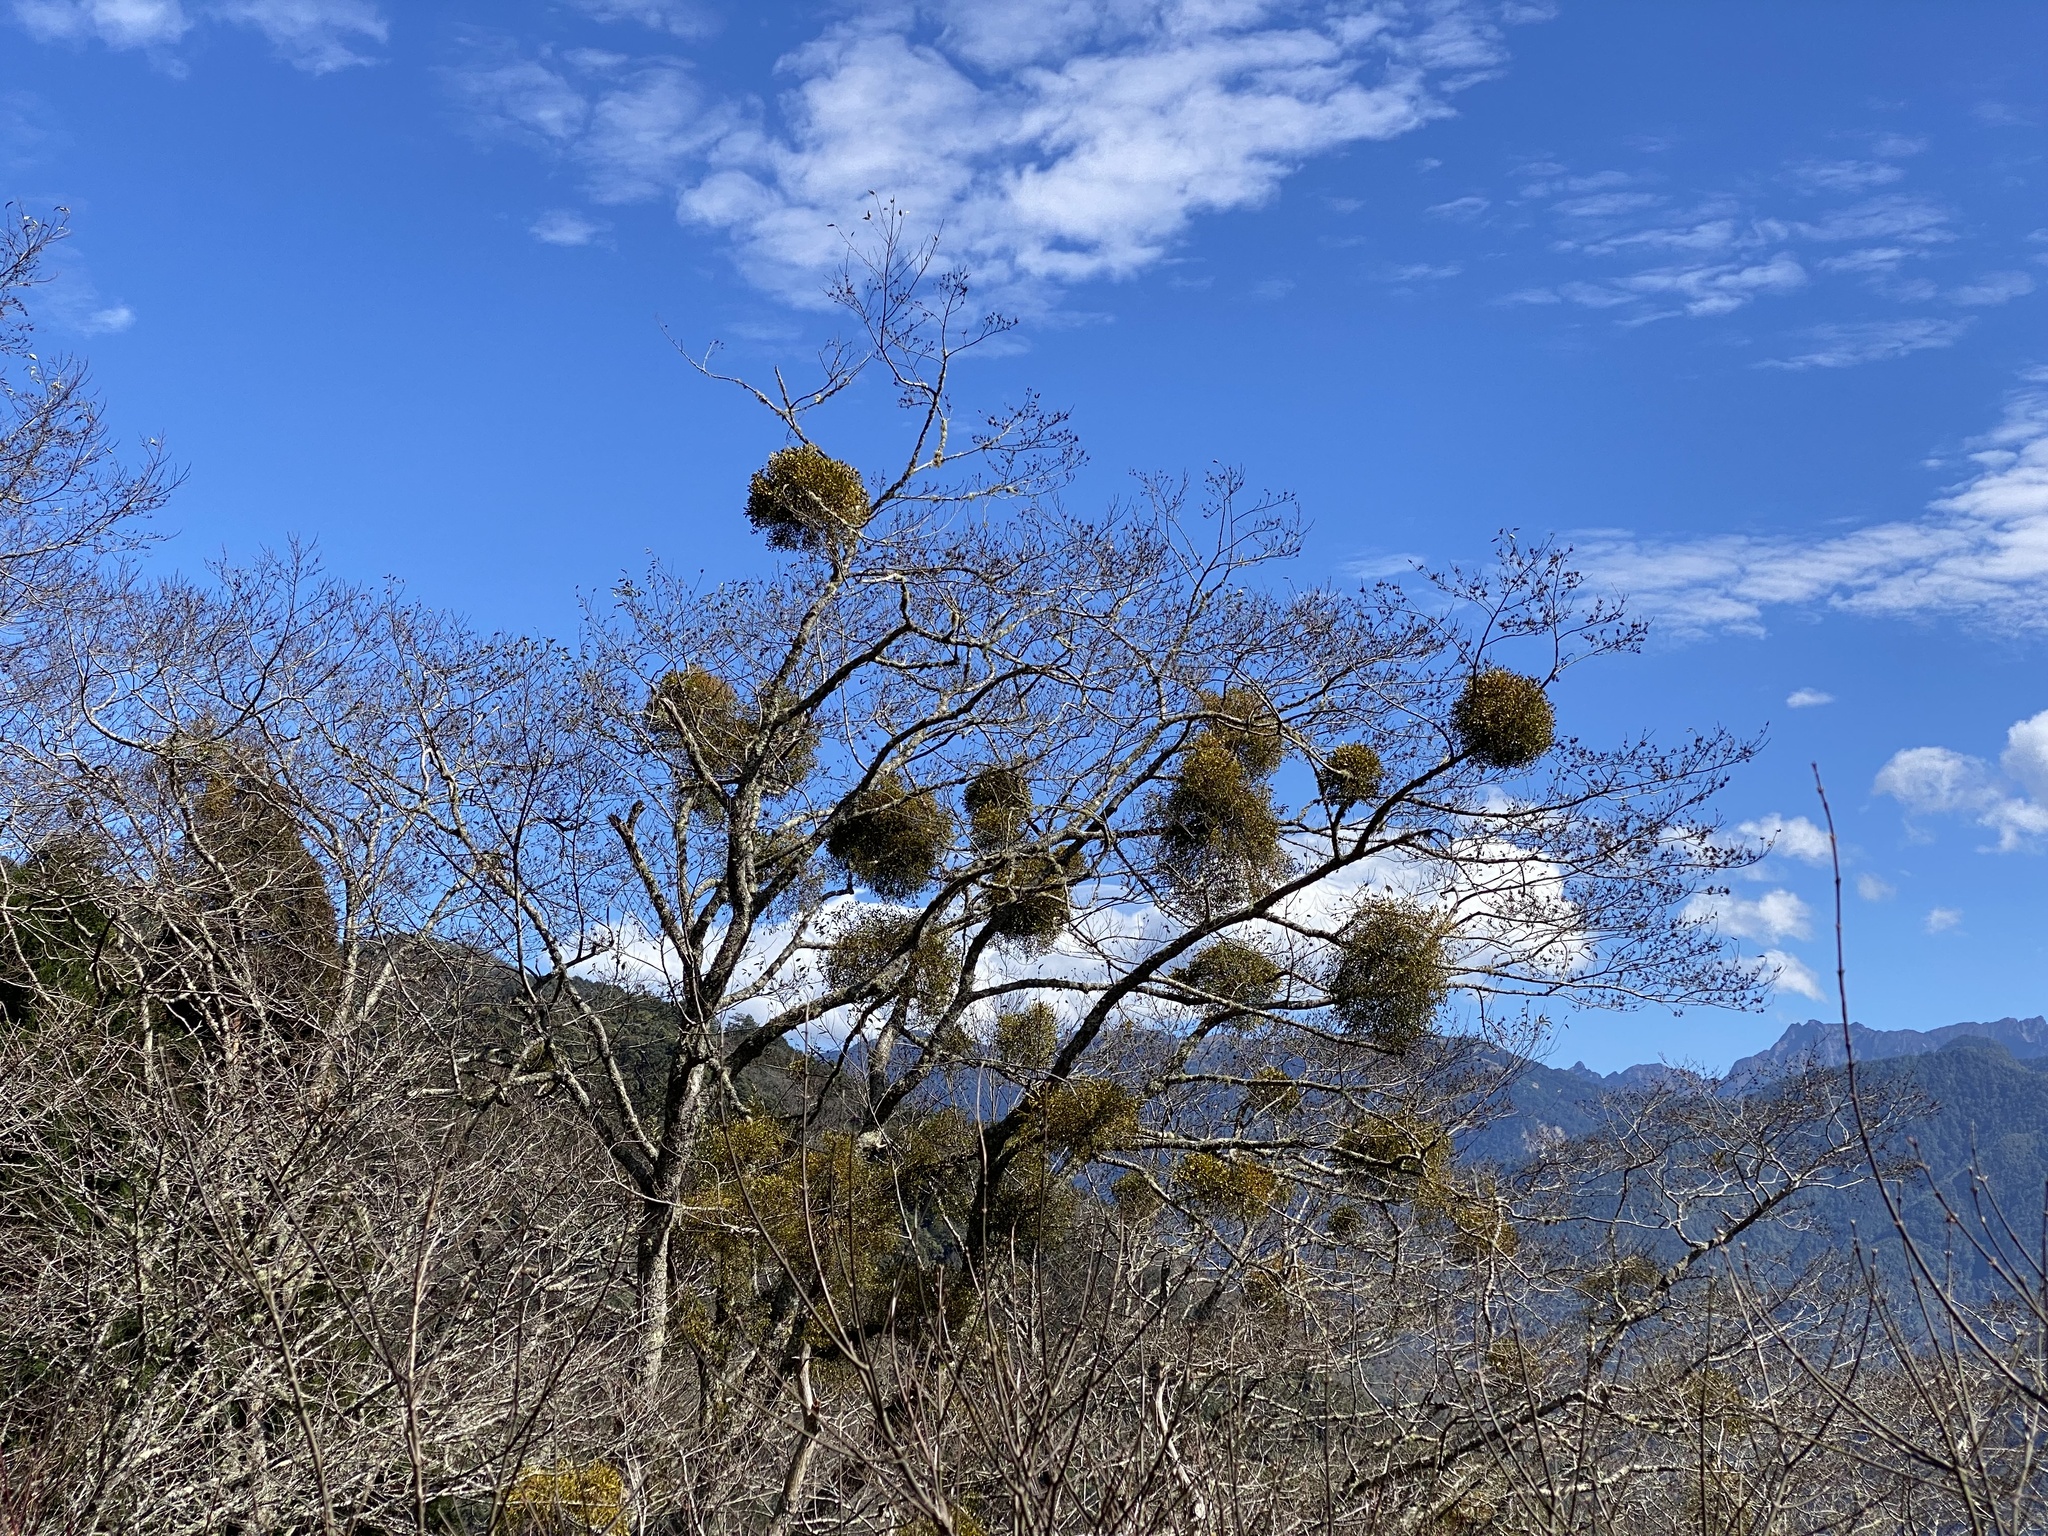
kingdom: Plantae
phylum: Tracheophyta
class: Magnoliopsida
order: Santalales
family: Viscaceae
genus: Viscum
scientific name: Viscum coloratum
